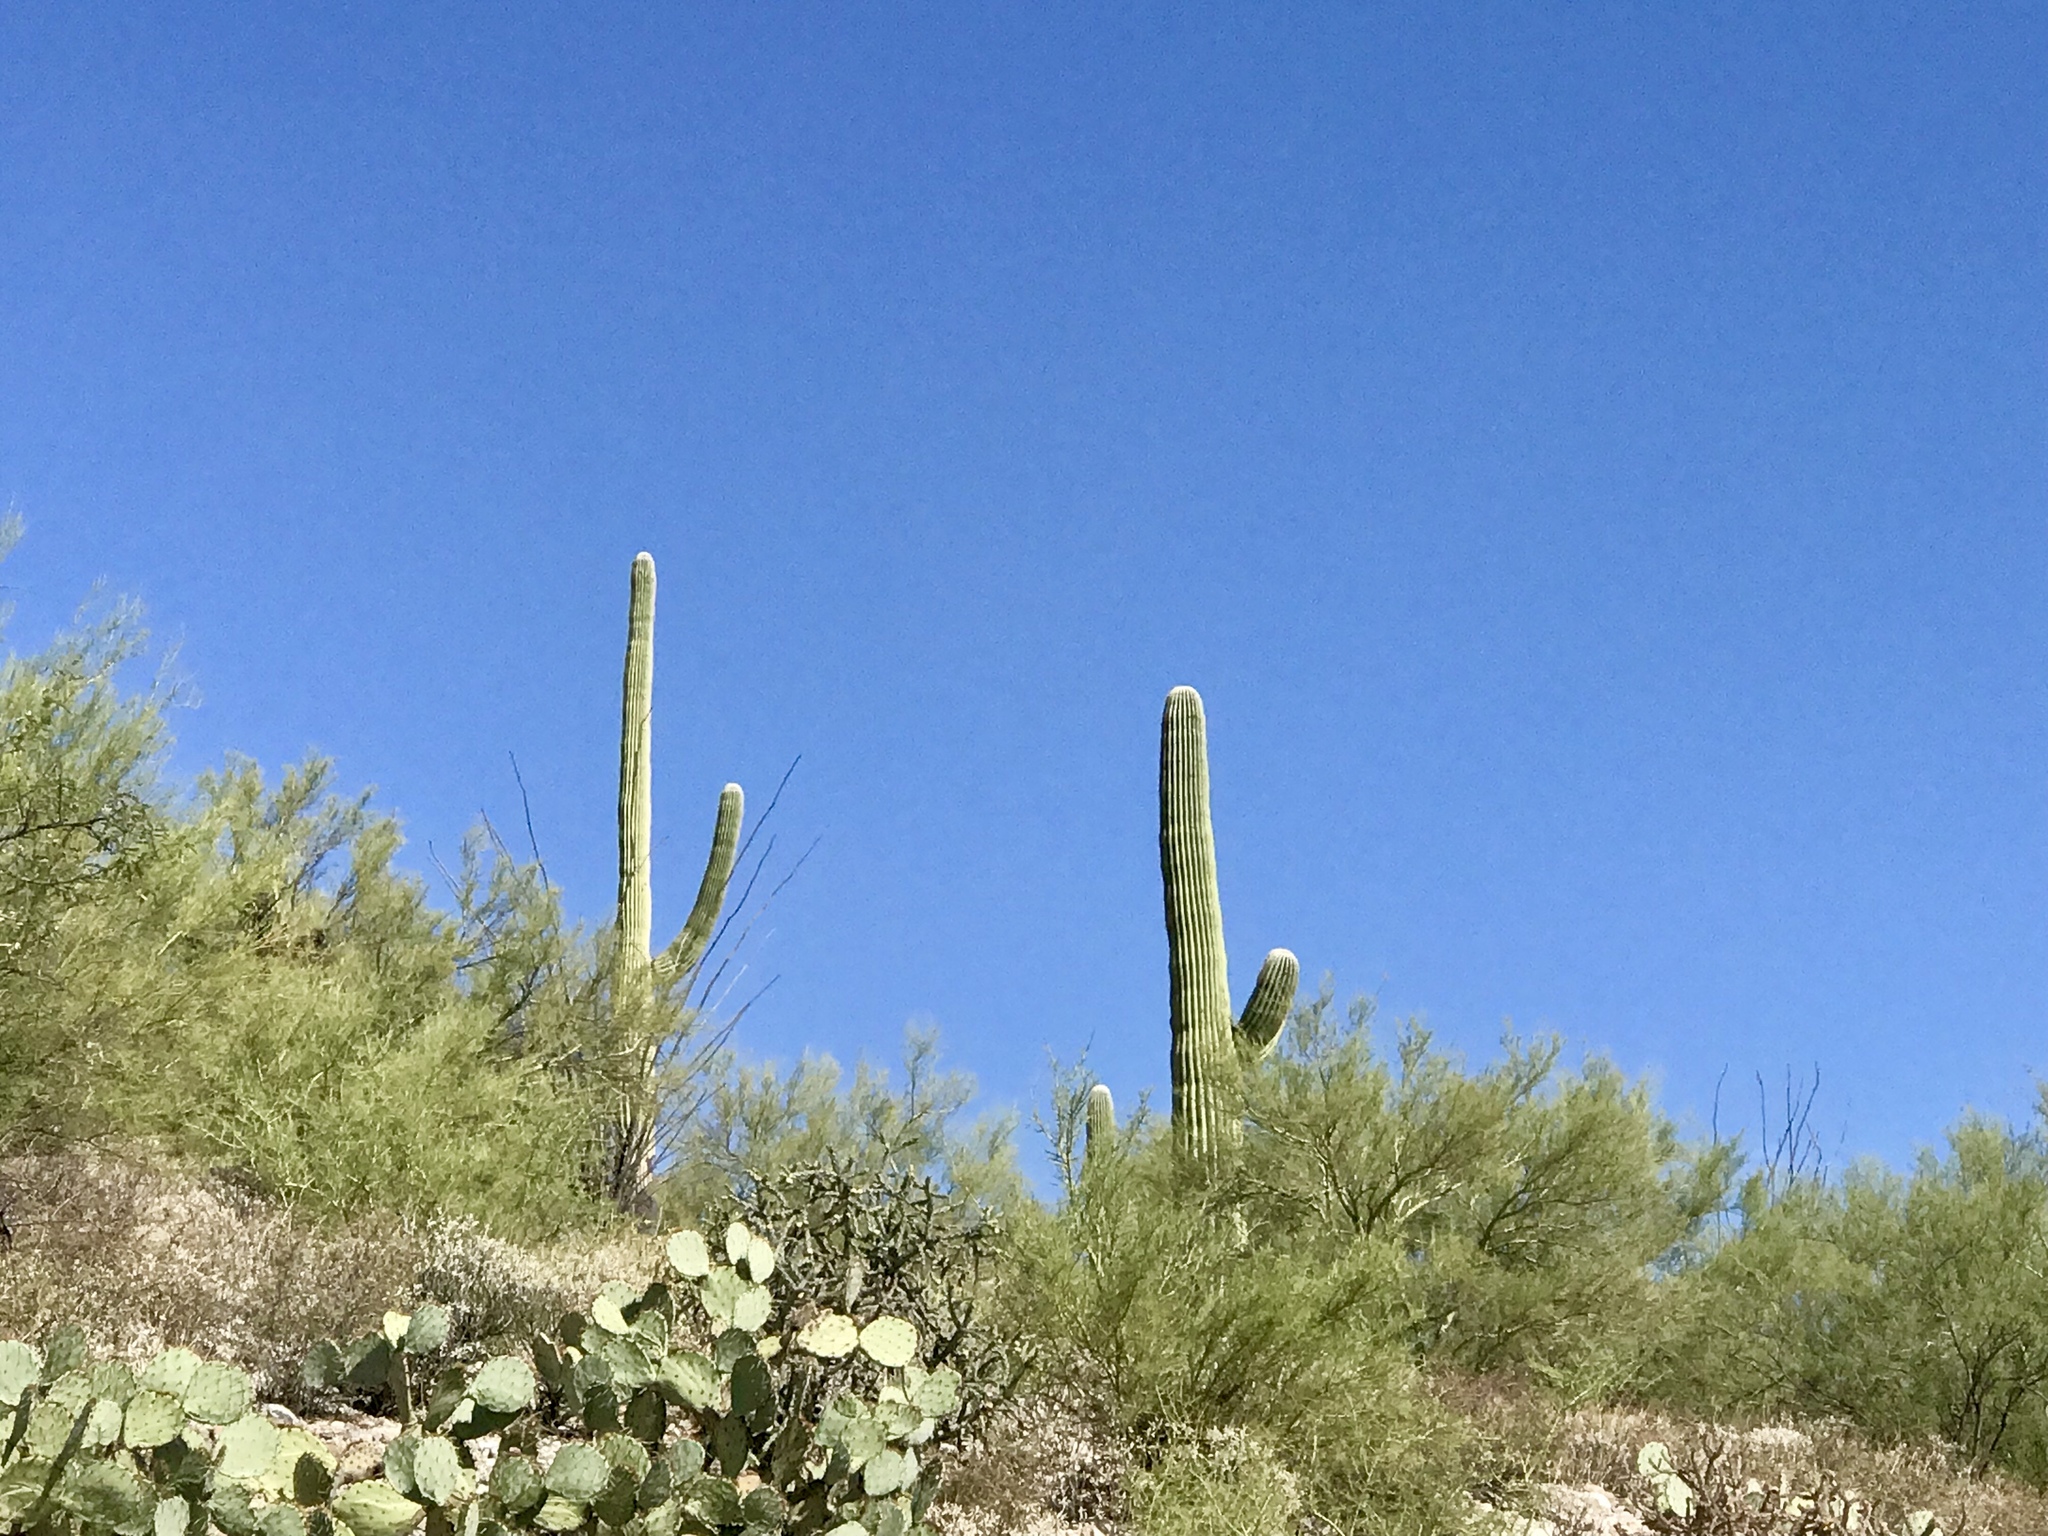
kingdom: Plantae
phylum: Tracheophyta
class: Magnoliopsida
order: Caryophyllales
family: Cactaceae
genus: Carnegiea
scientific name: Carnegiea gigantea
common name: Saguaro
